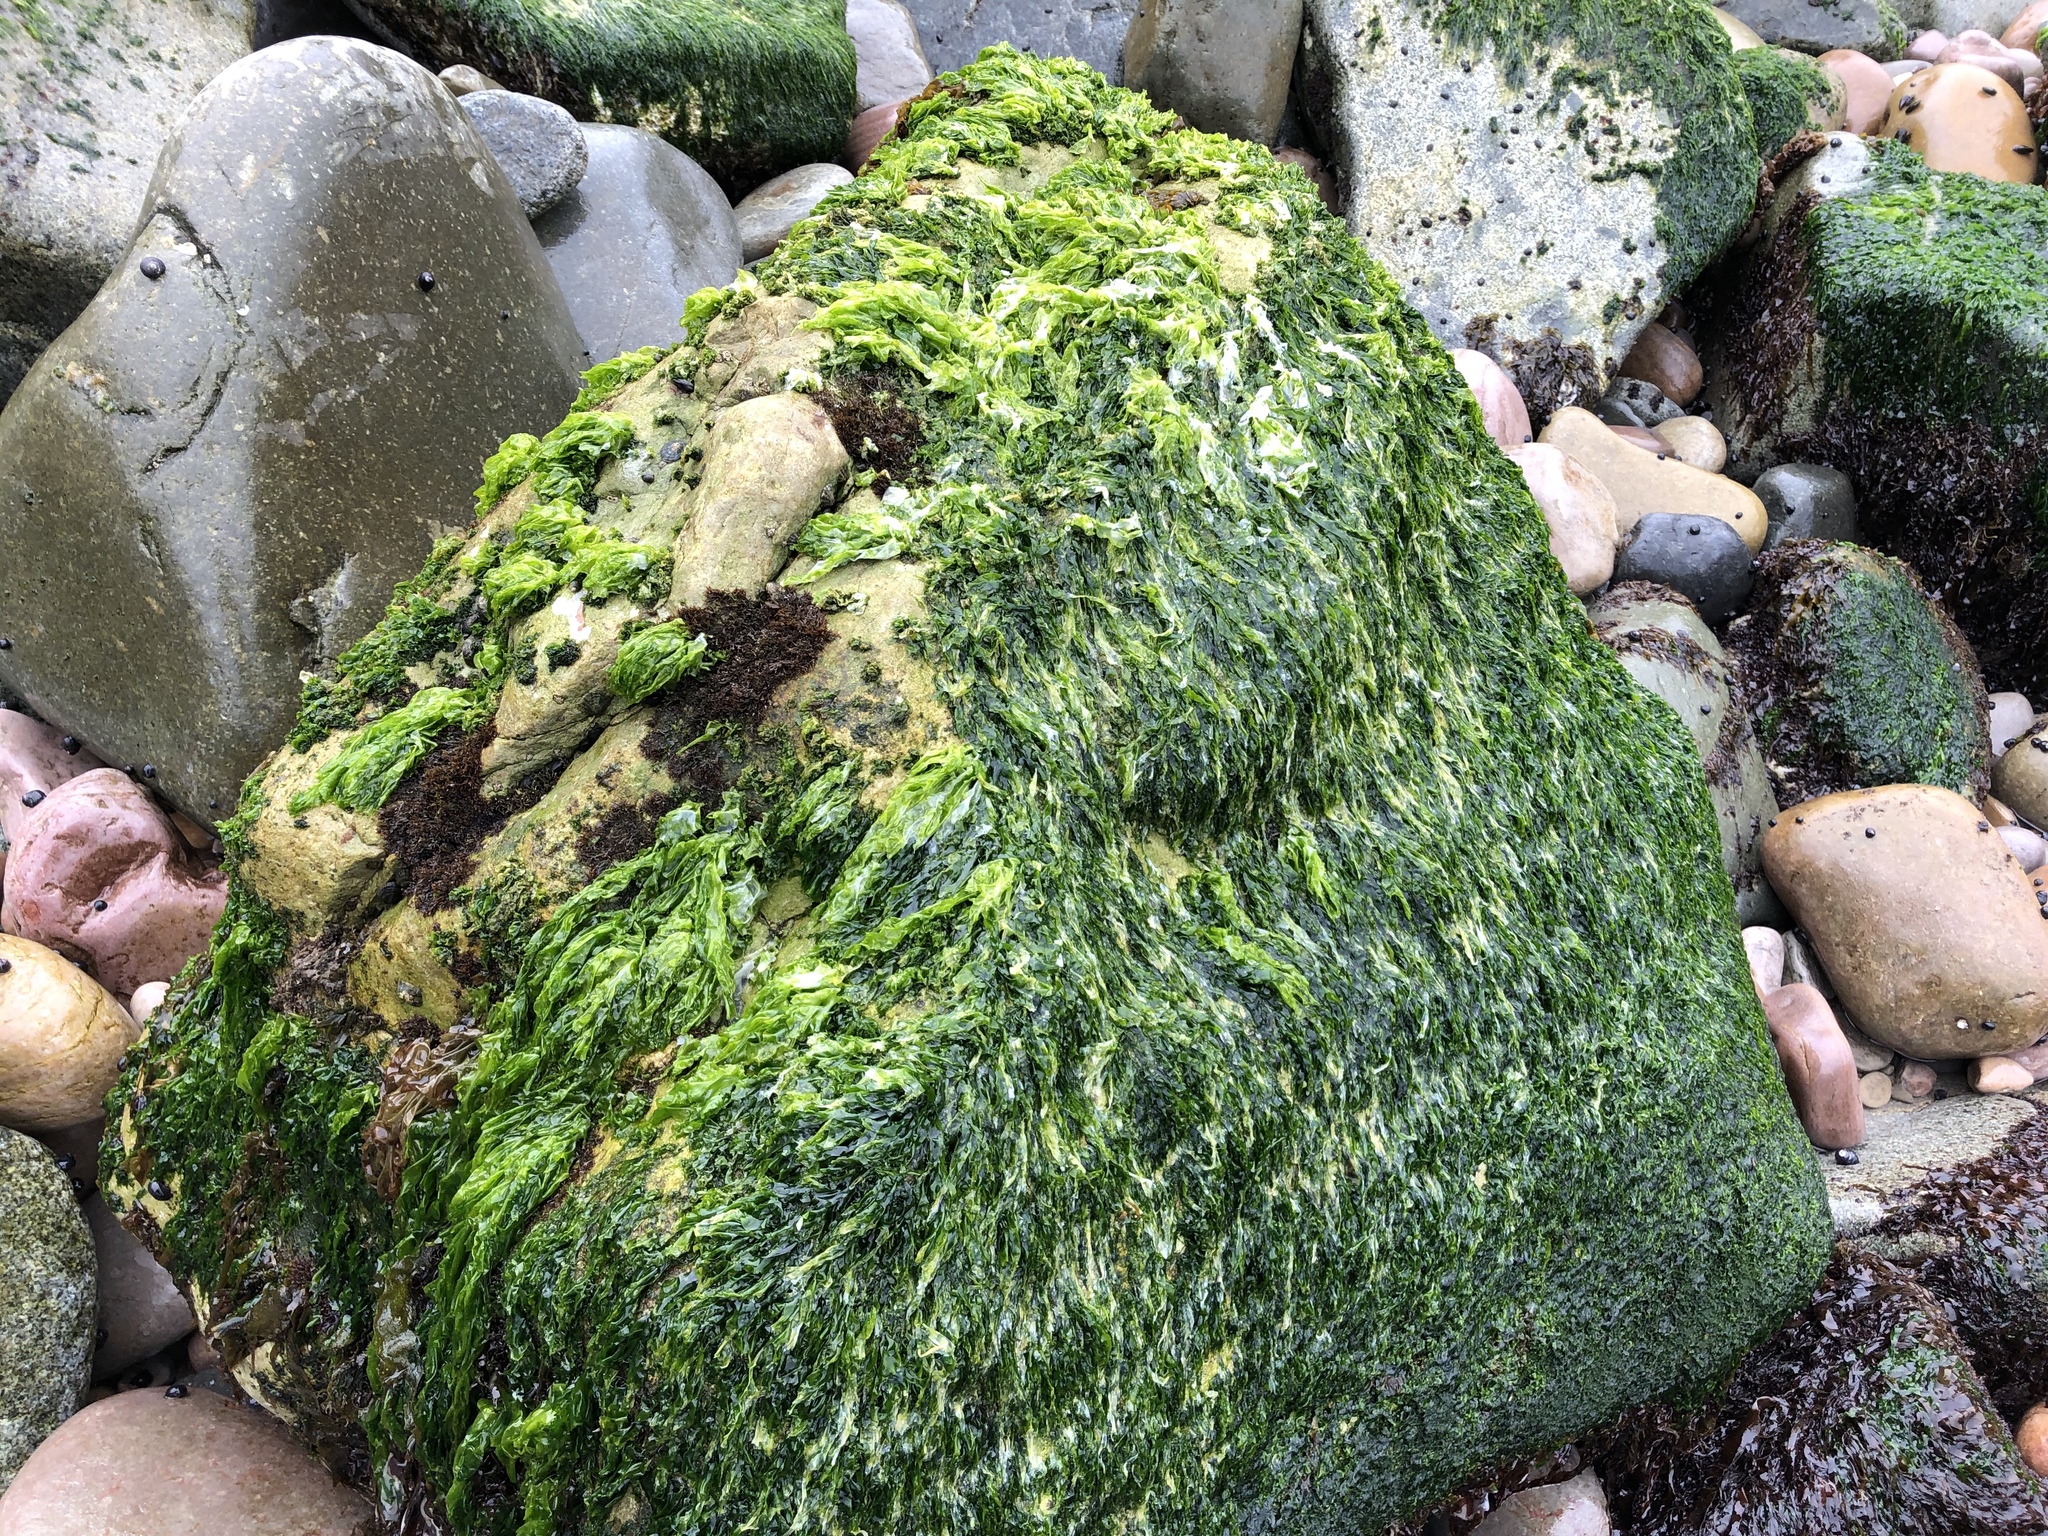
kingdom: Plantae
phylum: Chlorophyta
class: Ulvophyceae
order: Ulvales
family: Ulvaceae
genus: Ulva
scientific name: Ulva lactuca
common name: Sea lettuce
